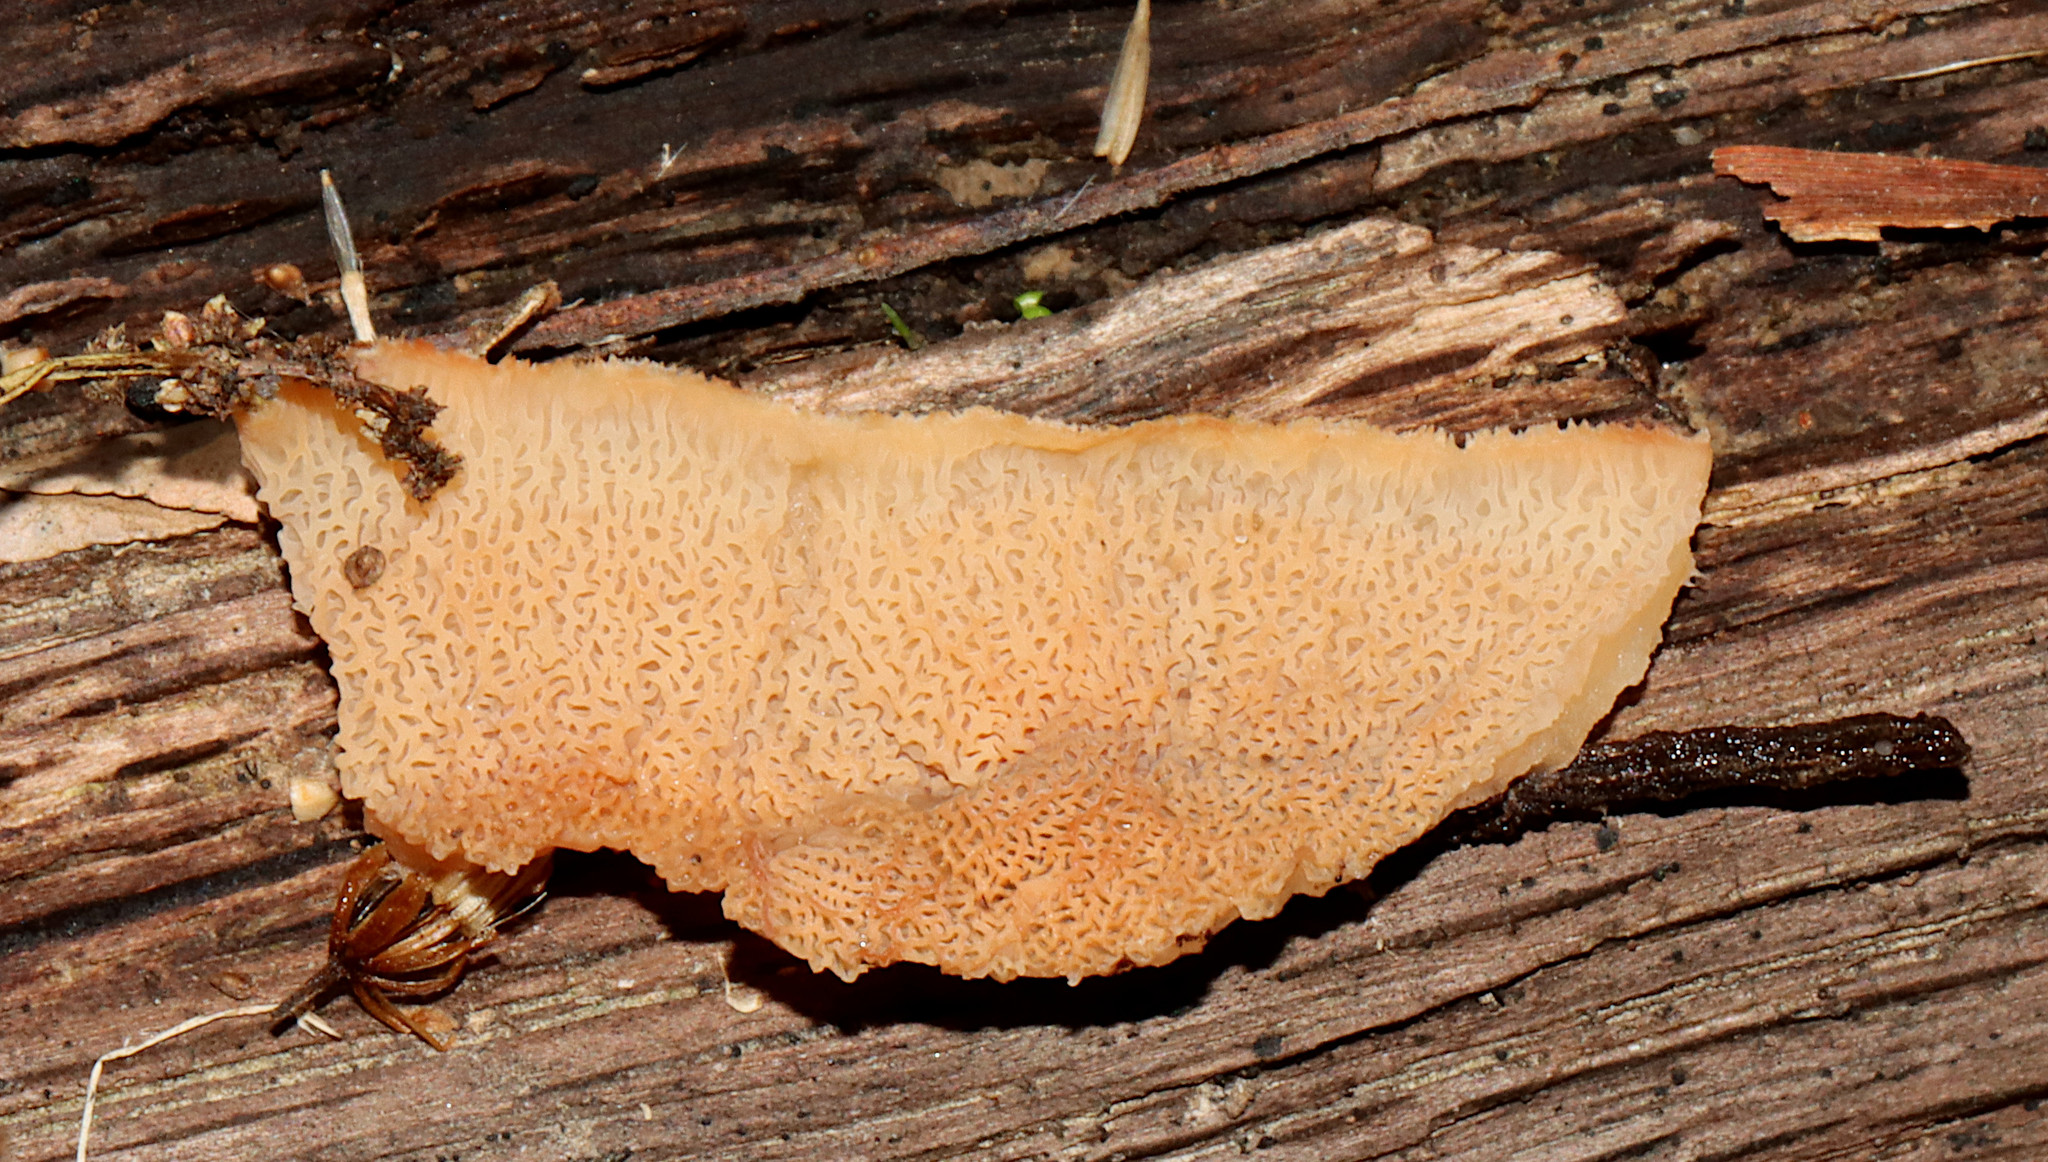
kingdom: Fungi
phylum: Basidiomycota
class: Agaricomycetes
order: Polyporales
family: Meruliaceae
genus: Phlebia
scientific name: Phlebia tremellosa
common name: Jelly rot
